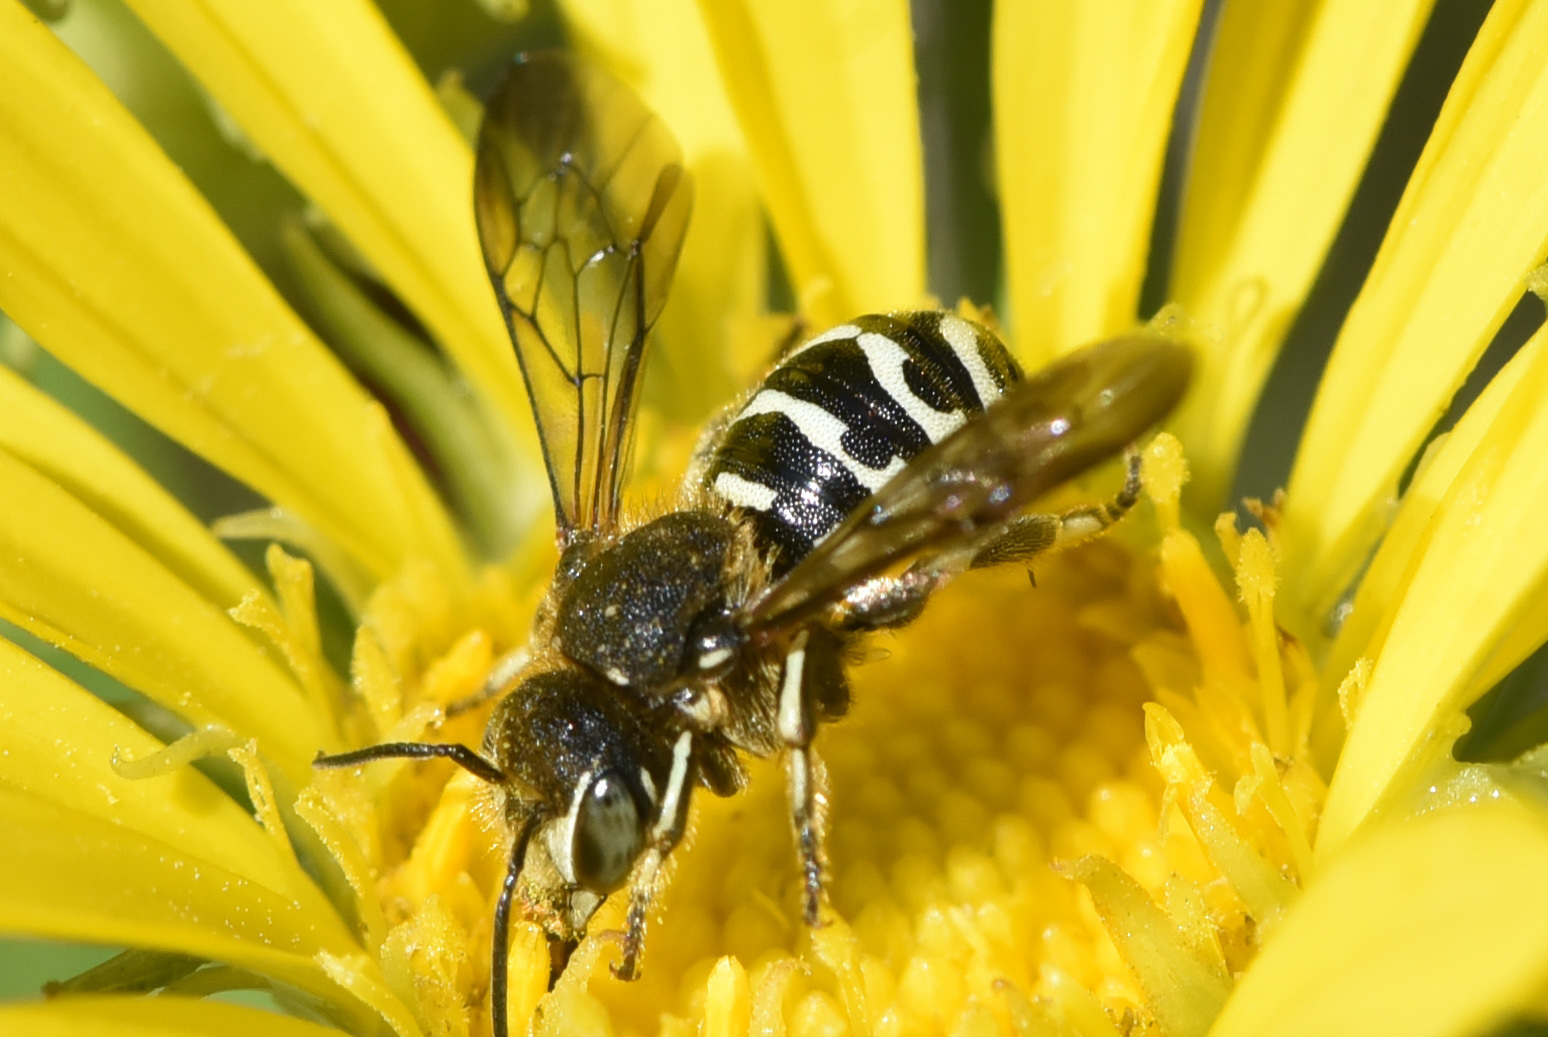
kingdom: Animalia
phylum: Arthropoda
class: Insecta
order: Hymenoptera
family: Megachilidae
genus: Dianthidium
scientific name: Dianthidium subparvum
